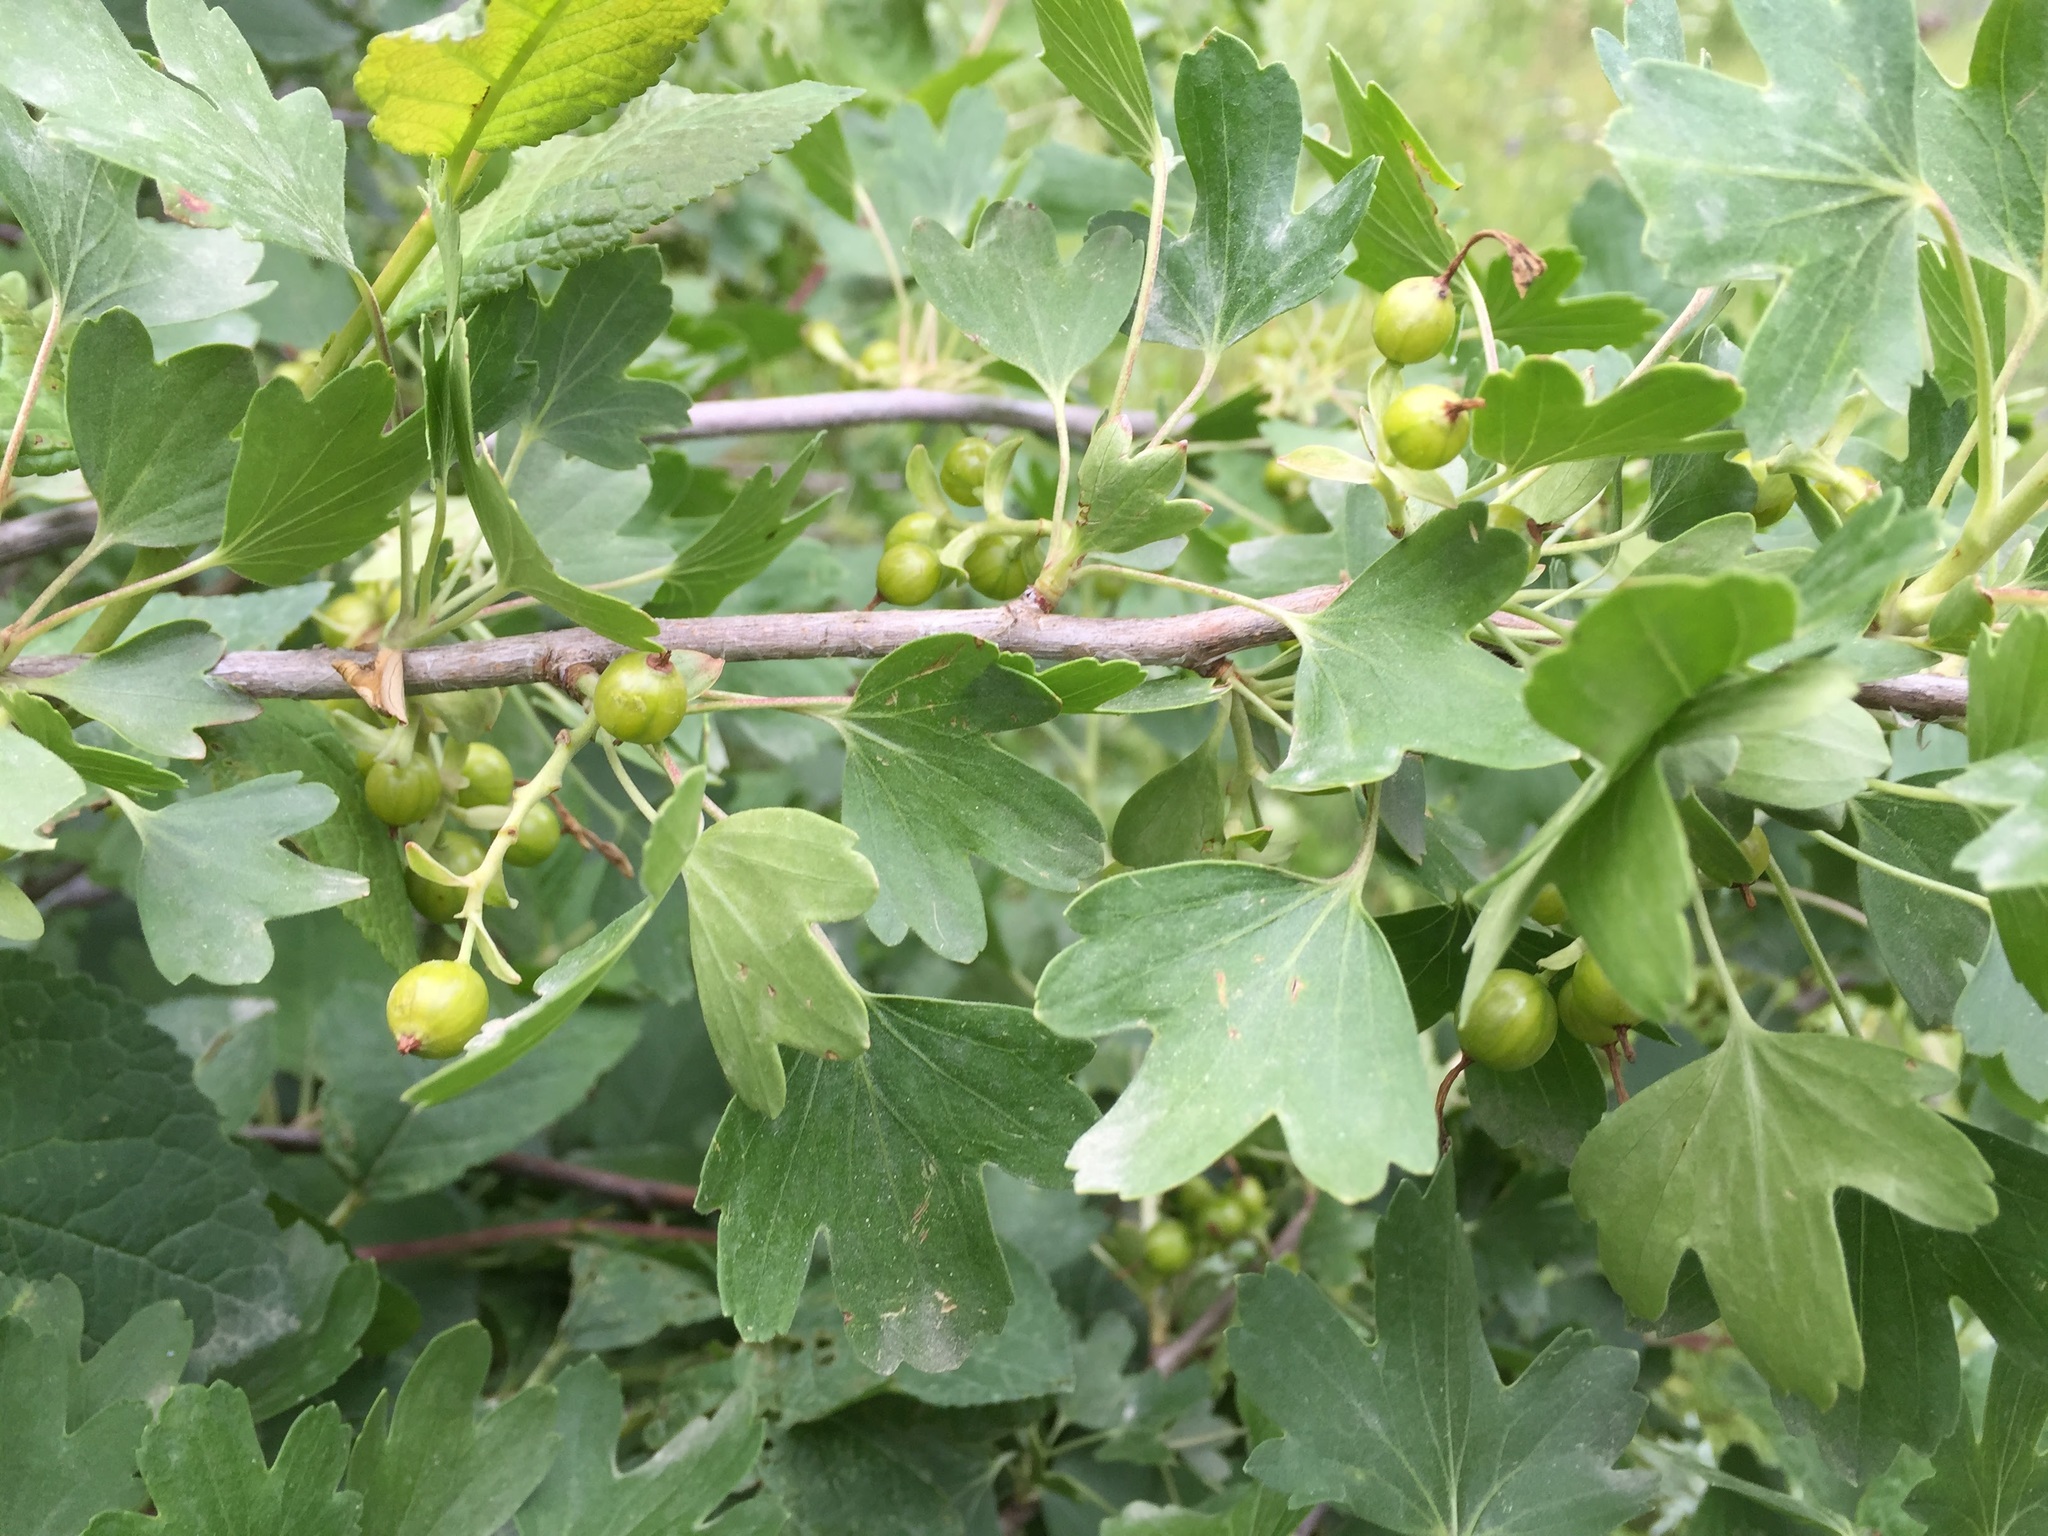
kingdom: Plantae
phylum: Tracheophyta
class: Magnoliopsida
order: Saxifragales
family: Grossulariaceae
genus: Ribes
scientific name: Ribes aureum
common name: Golden currant
